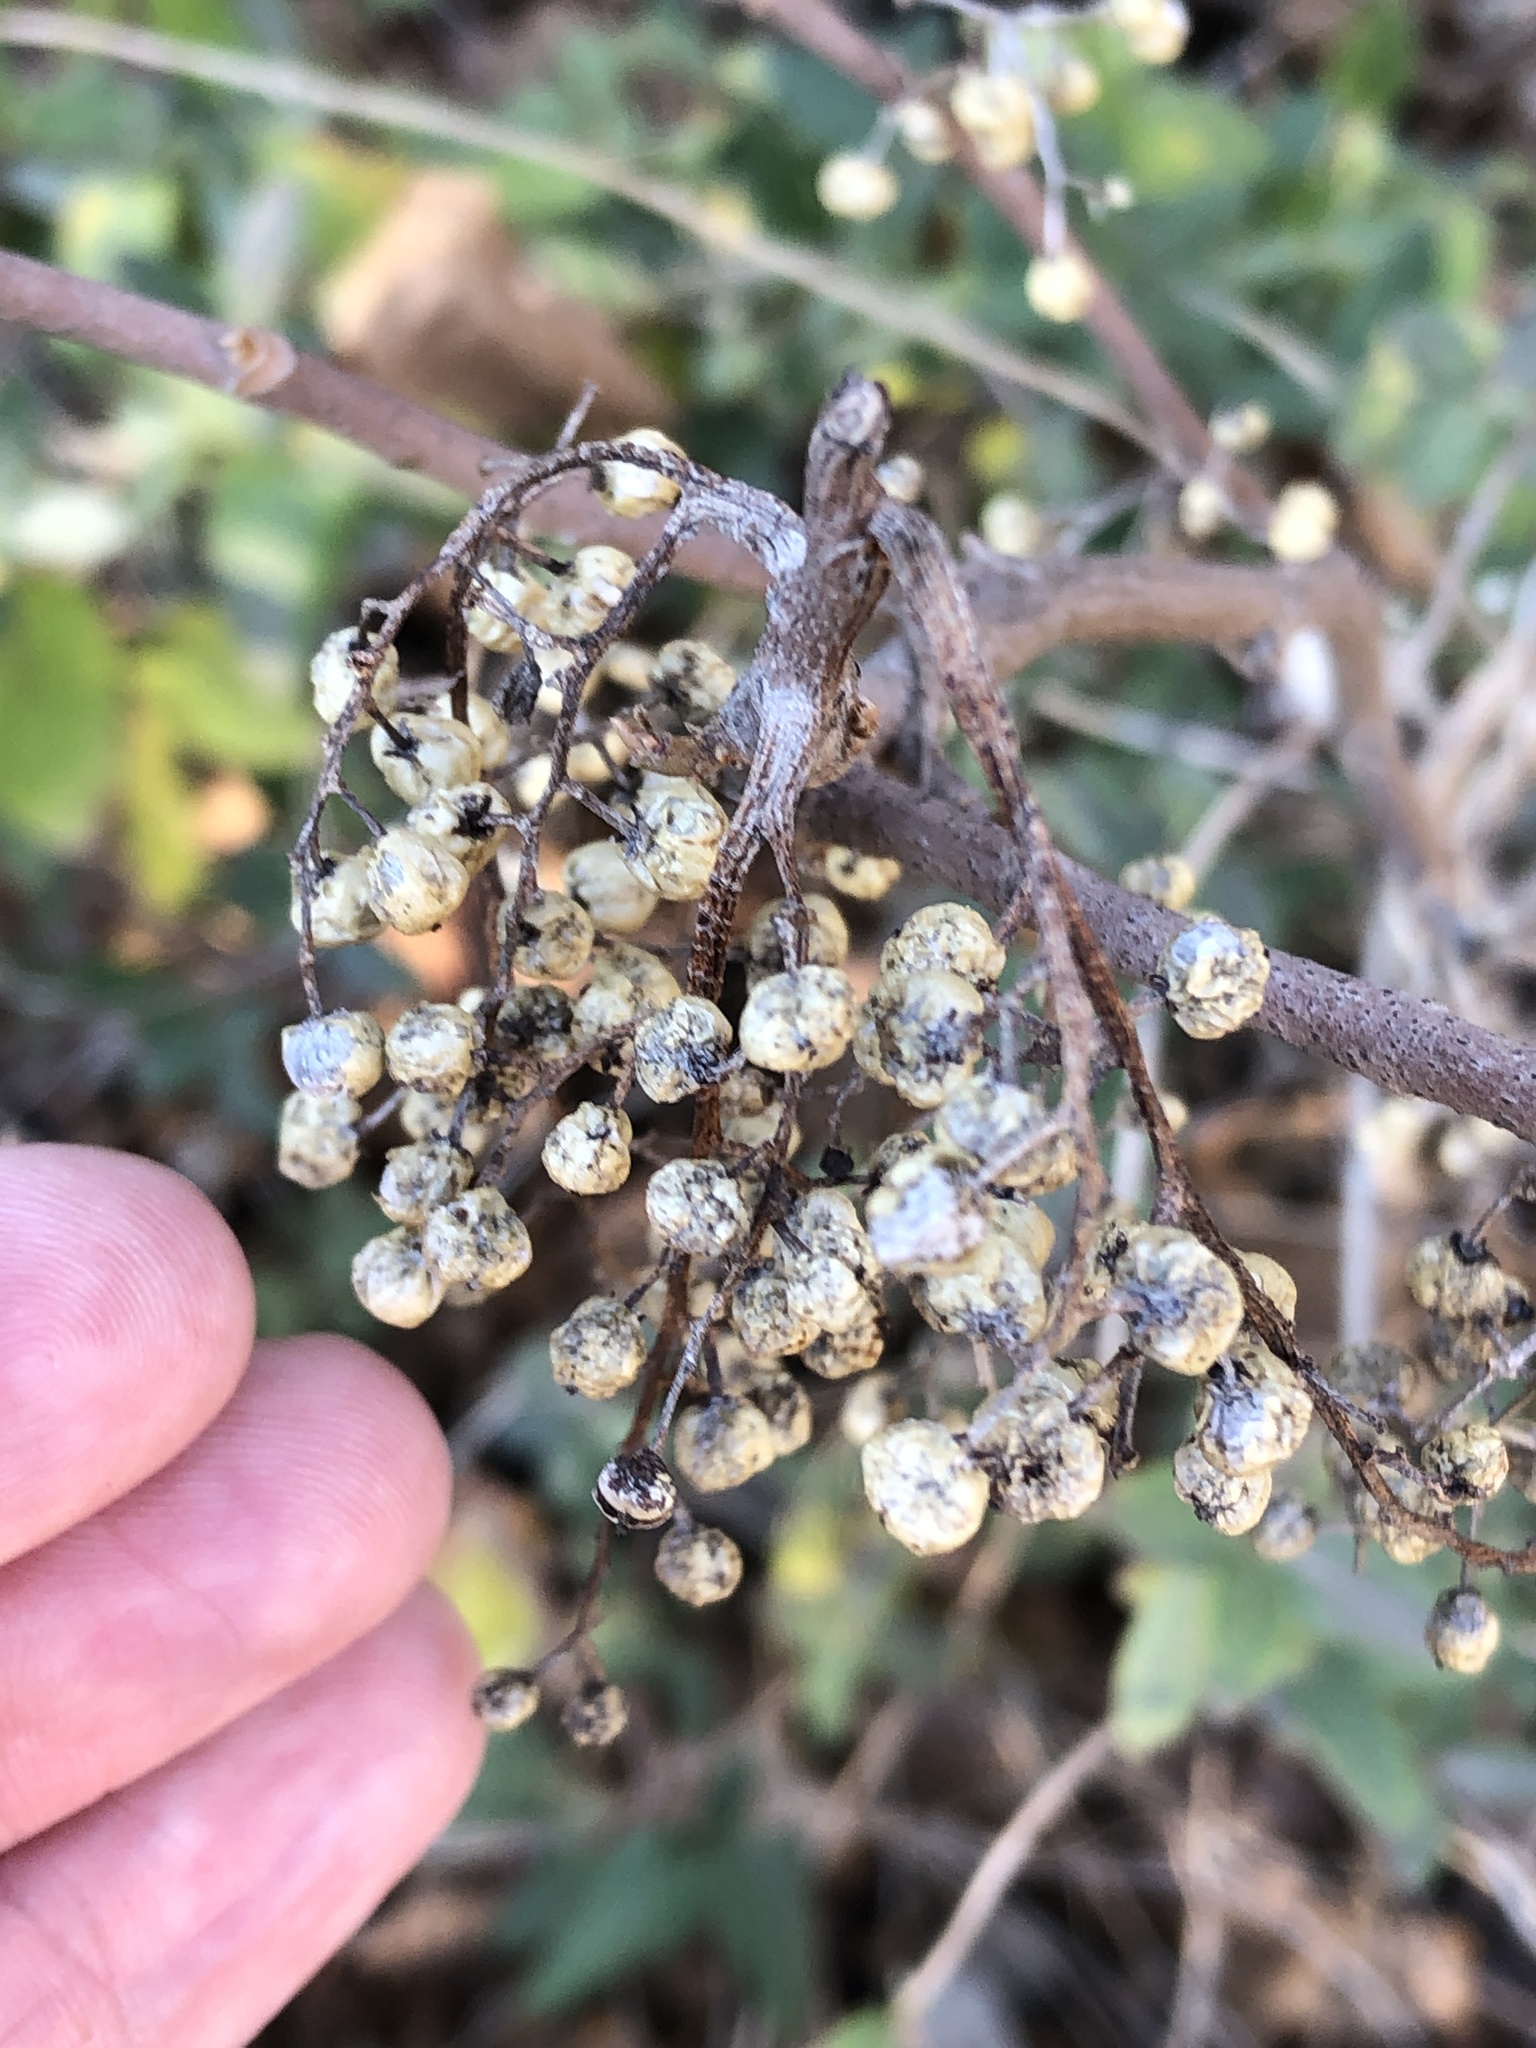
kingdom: Plantae
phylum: Tracheophyta
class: Magnoliopsida
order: Sapindales
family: Anacardiaceae
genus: Toxicodendron
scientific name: Toxicodendron radicans
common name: Poison ivy
